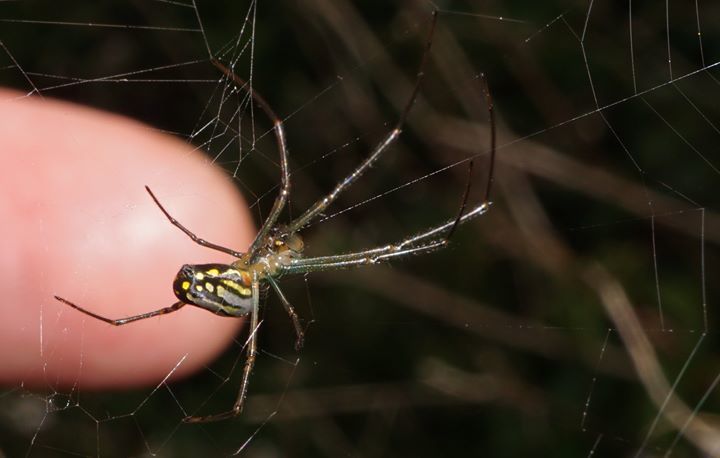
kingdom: Animalia
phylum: Arthropoda
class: Arachnida
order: Araneae
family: Tetragnathidae
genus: Leucauge
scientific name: Leucauge argyra
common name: Longjawed orb weavers
